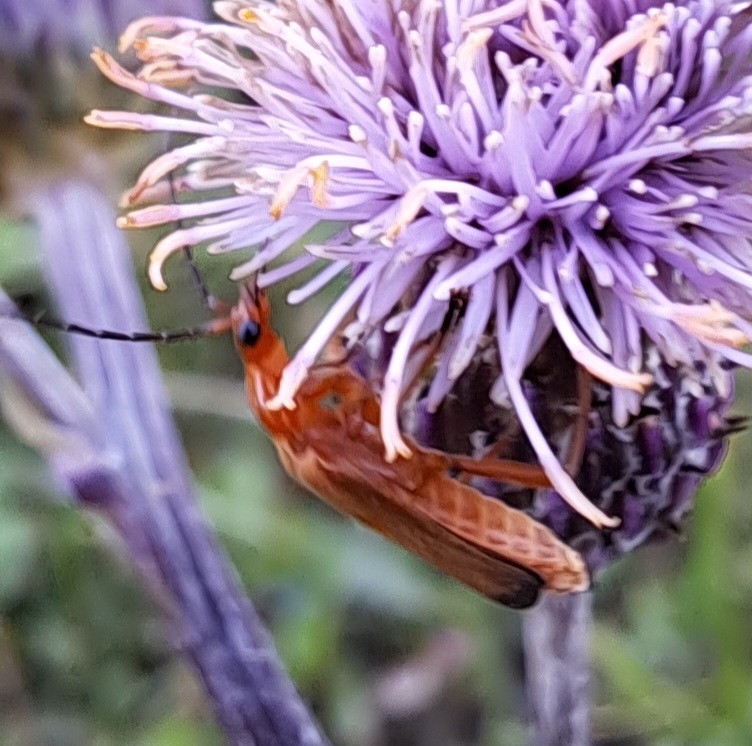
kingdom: Animalia
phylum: Arthropoda
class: Insecta
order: Coleoptera
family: Cantharidae
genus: Rhagonycha
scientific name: Rhagonycha fulva
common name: Common red soldier beetle
